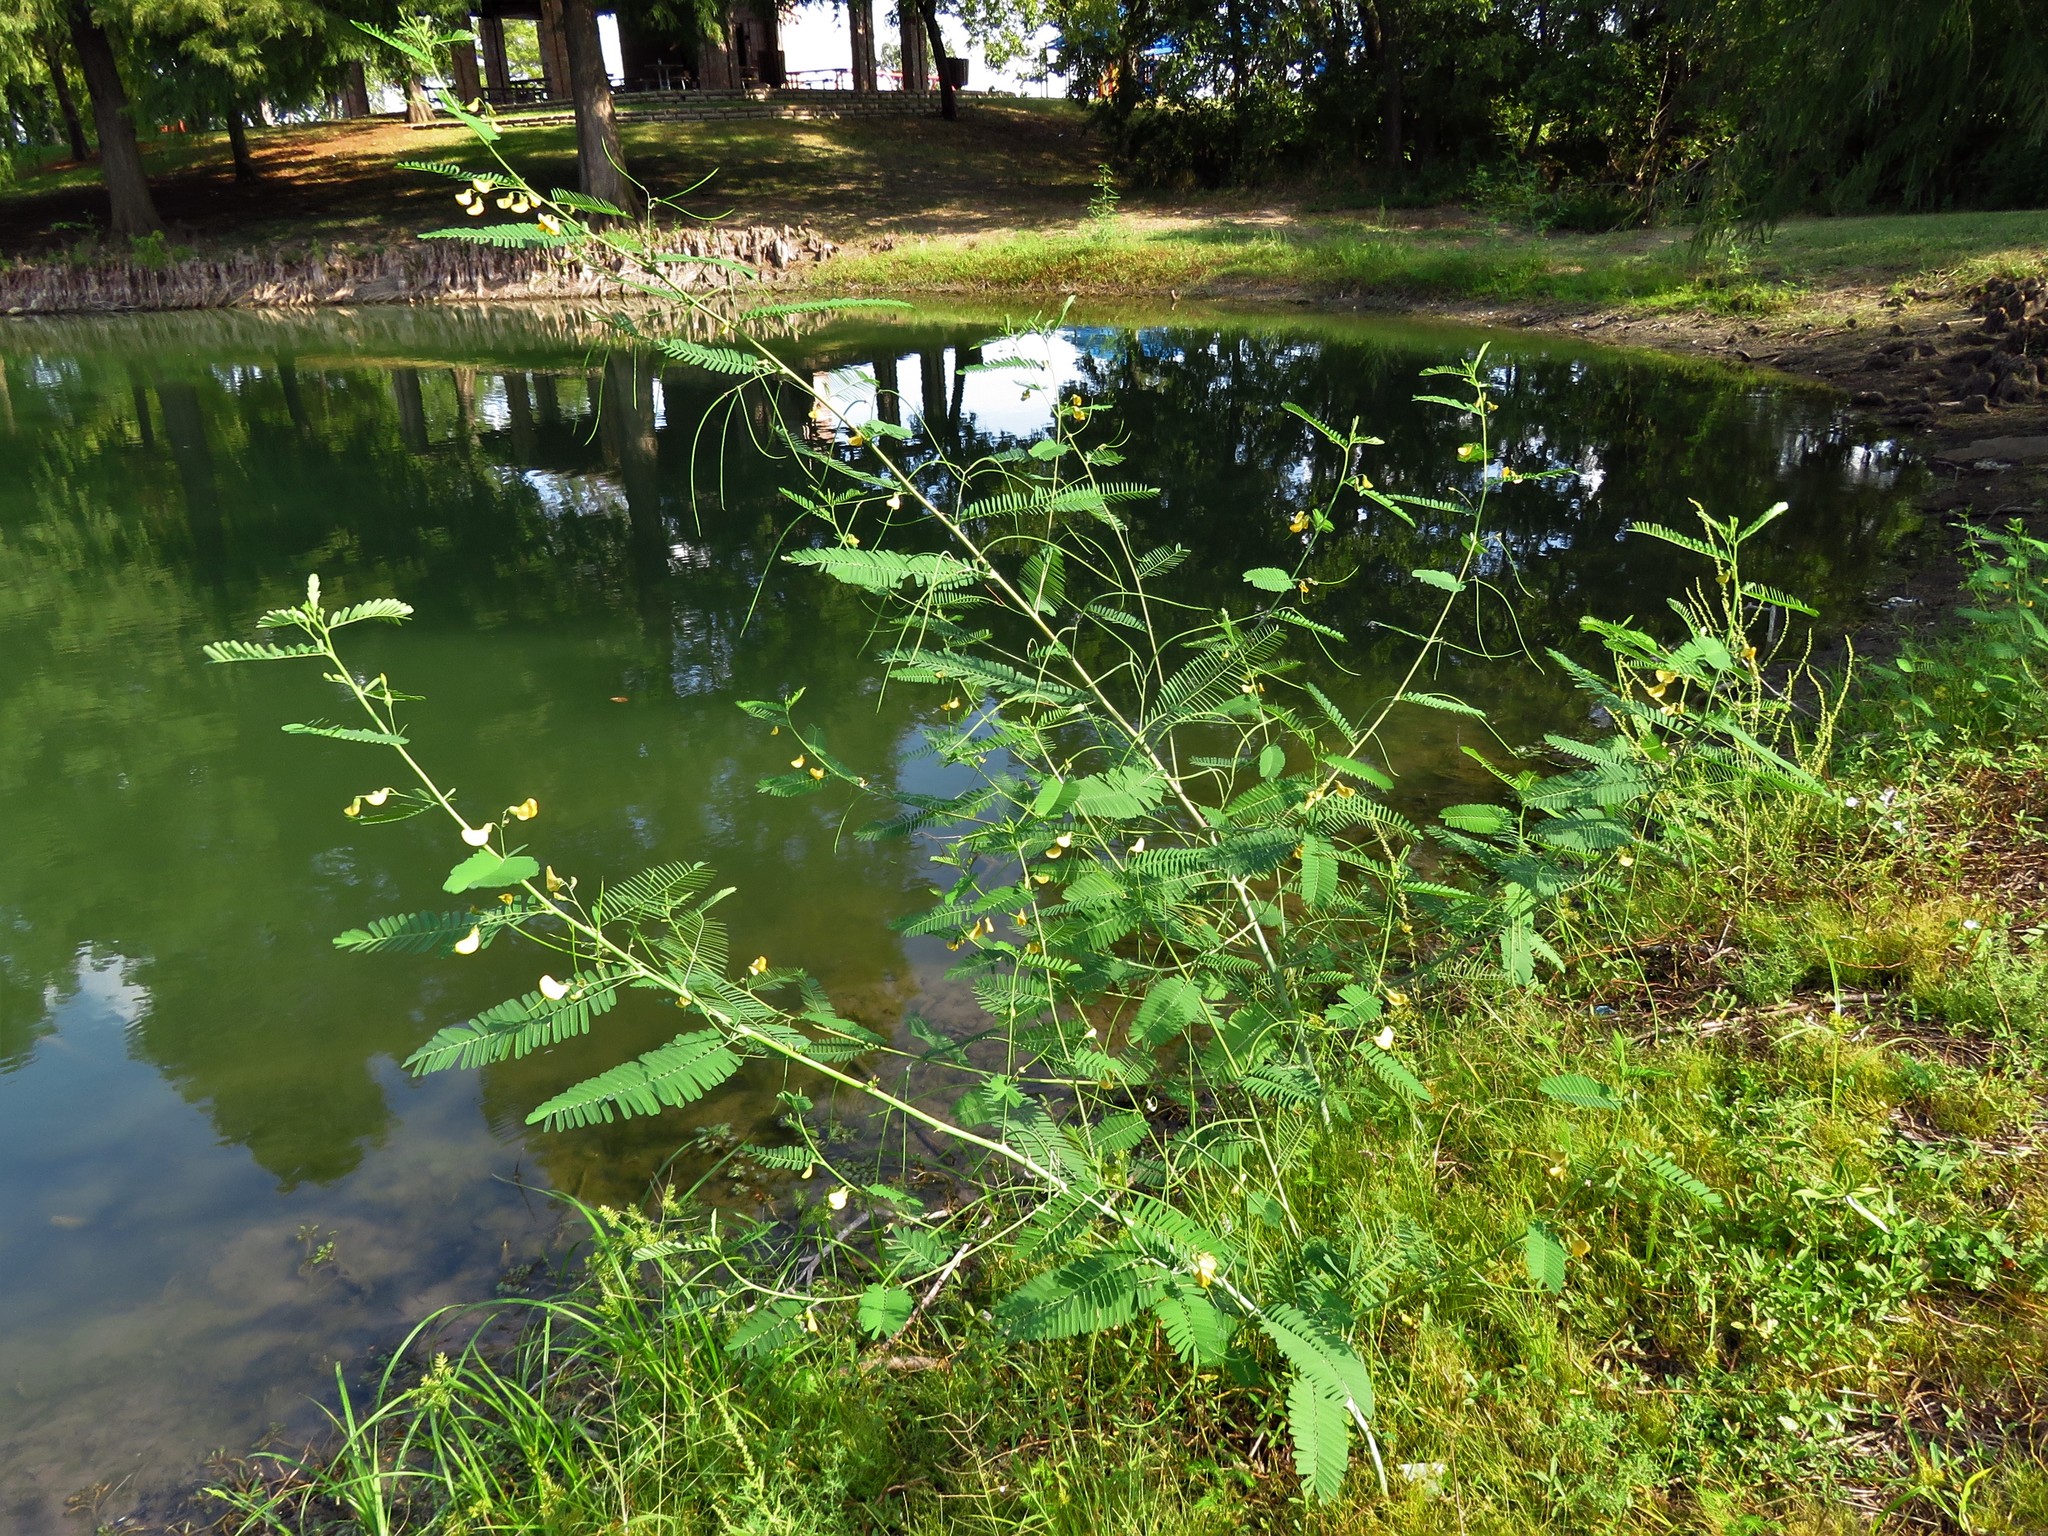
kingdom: Plantae
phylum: Tracheophyta
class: Magnoliopsida
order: Fabales
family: Fabaceae
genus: Sesbania
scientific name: Sesbania herbacea
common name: Bigpod sesbania
